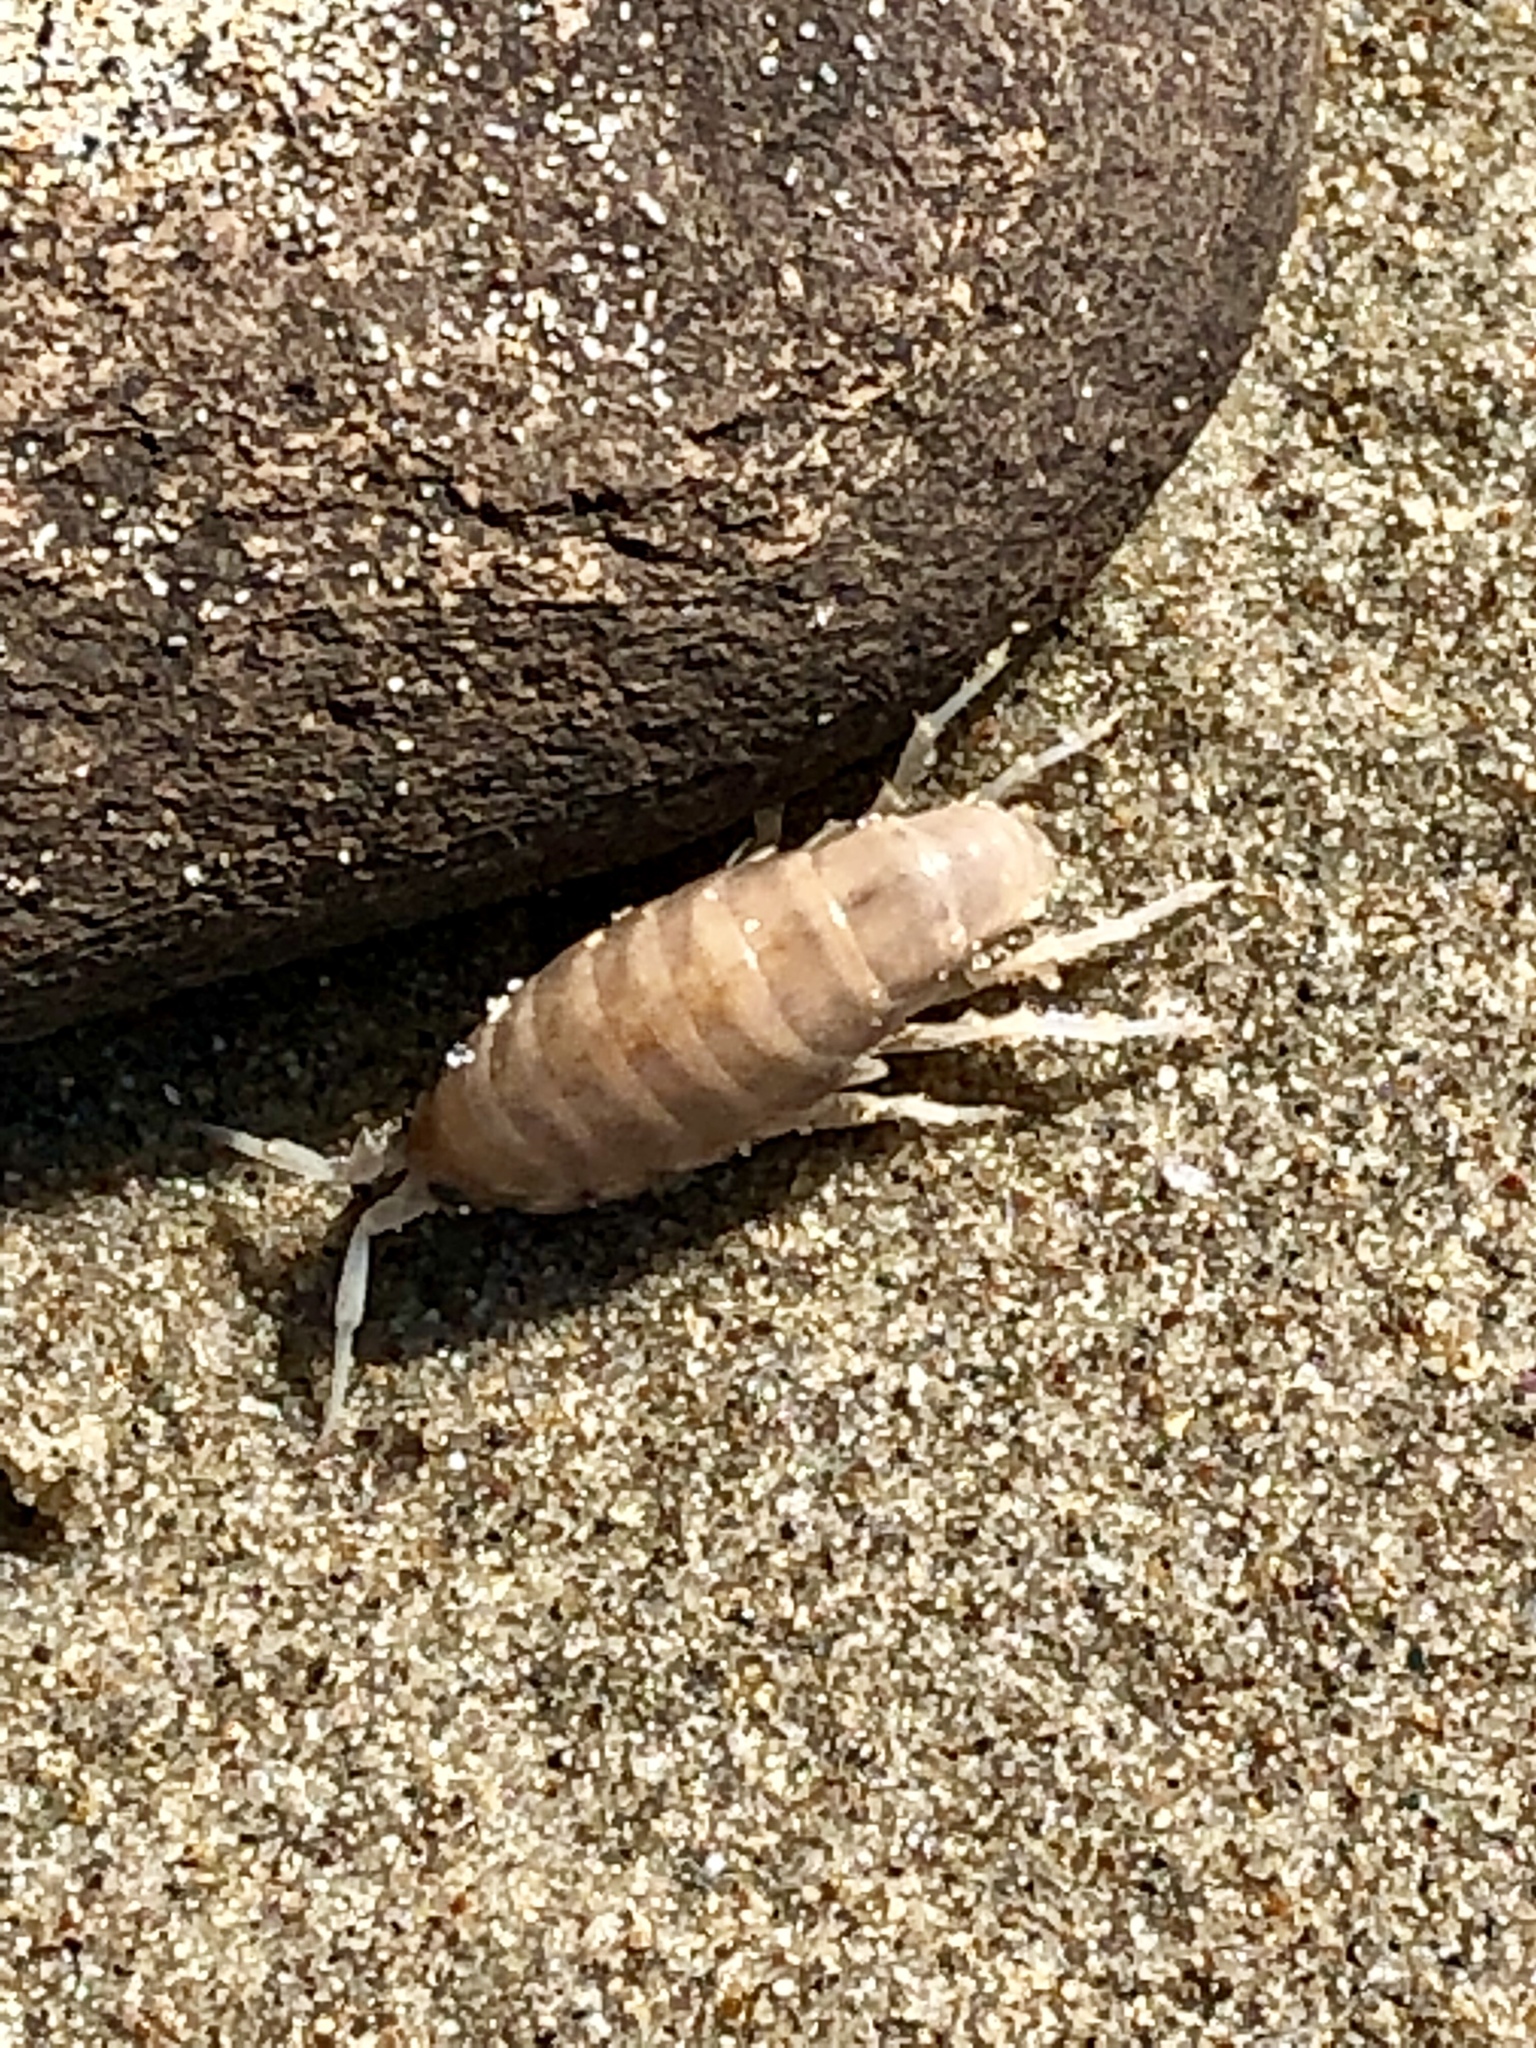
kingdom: Animalia
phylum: Arthropoda
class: Malacostraca
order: Amphipoda
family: Talitridae
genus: Megalorchestia
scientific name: Megalorchestia corniculata
